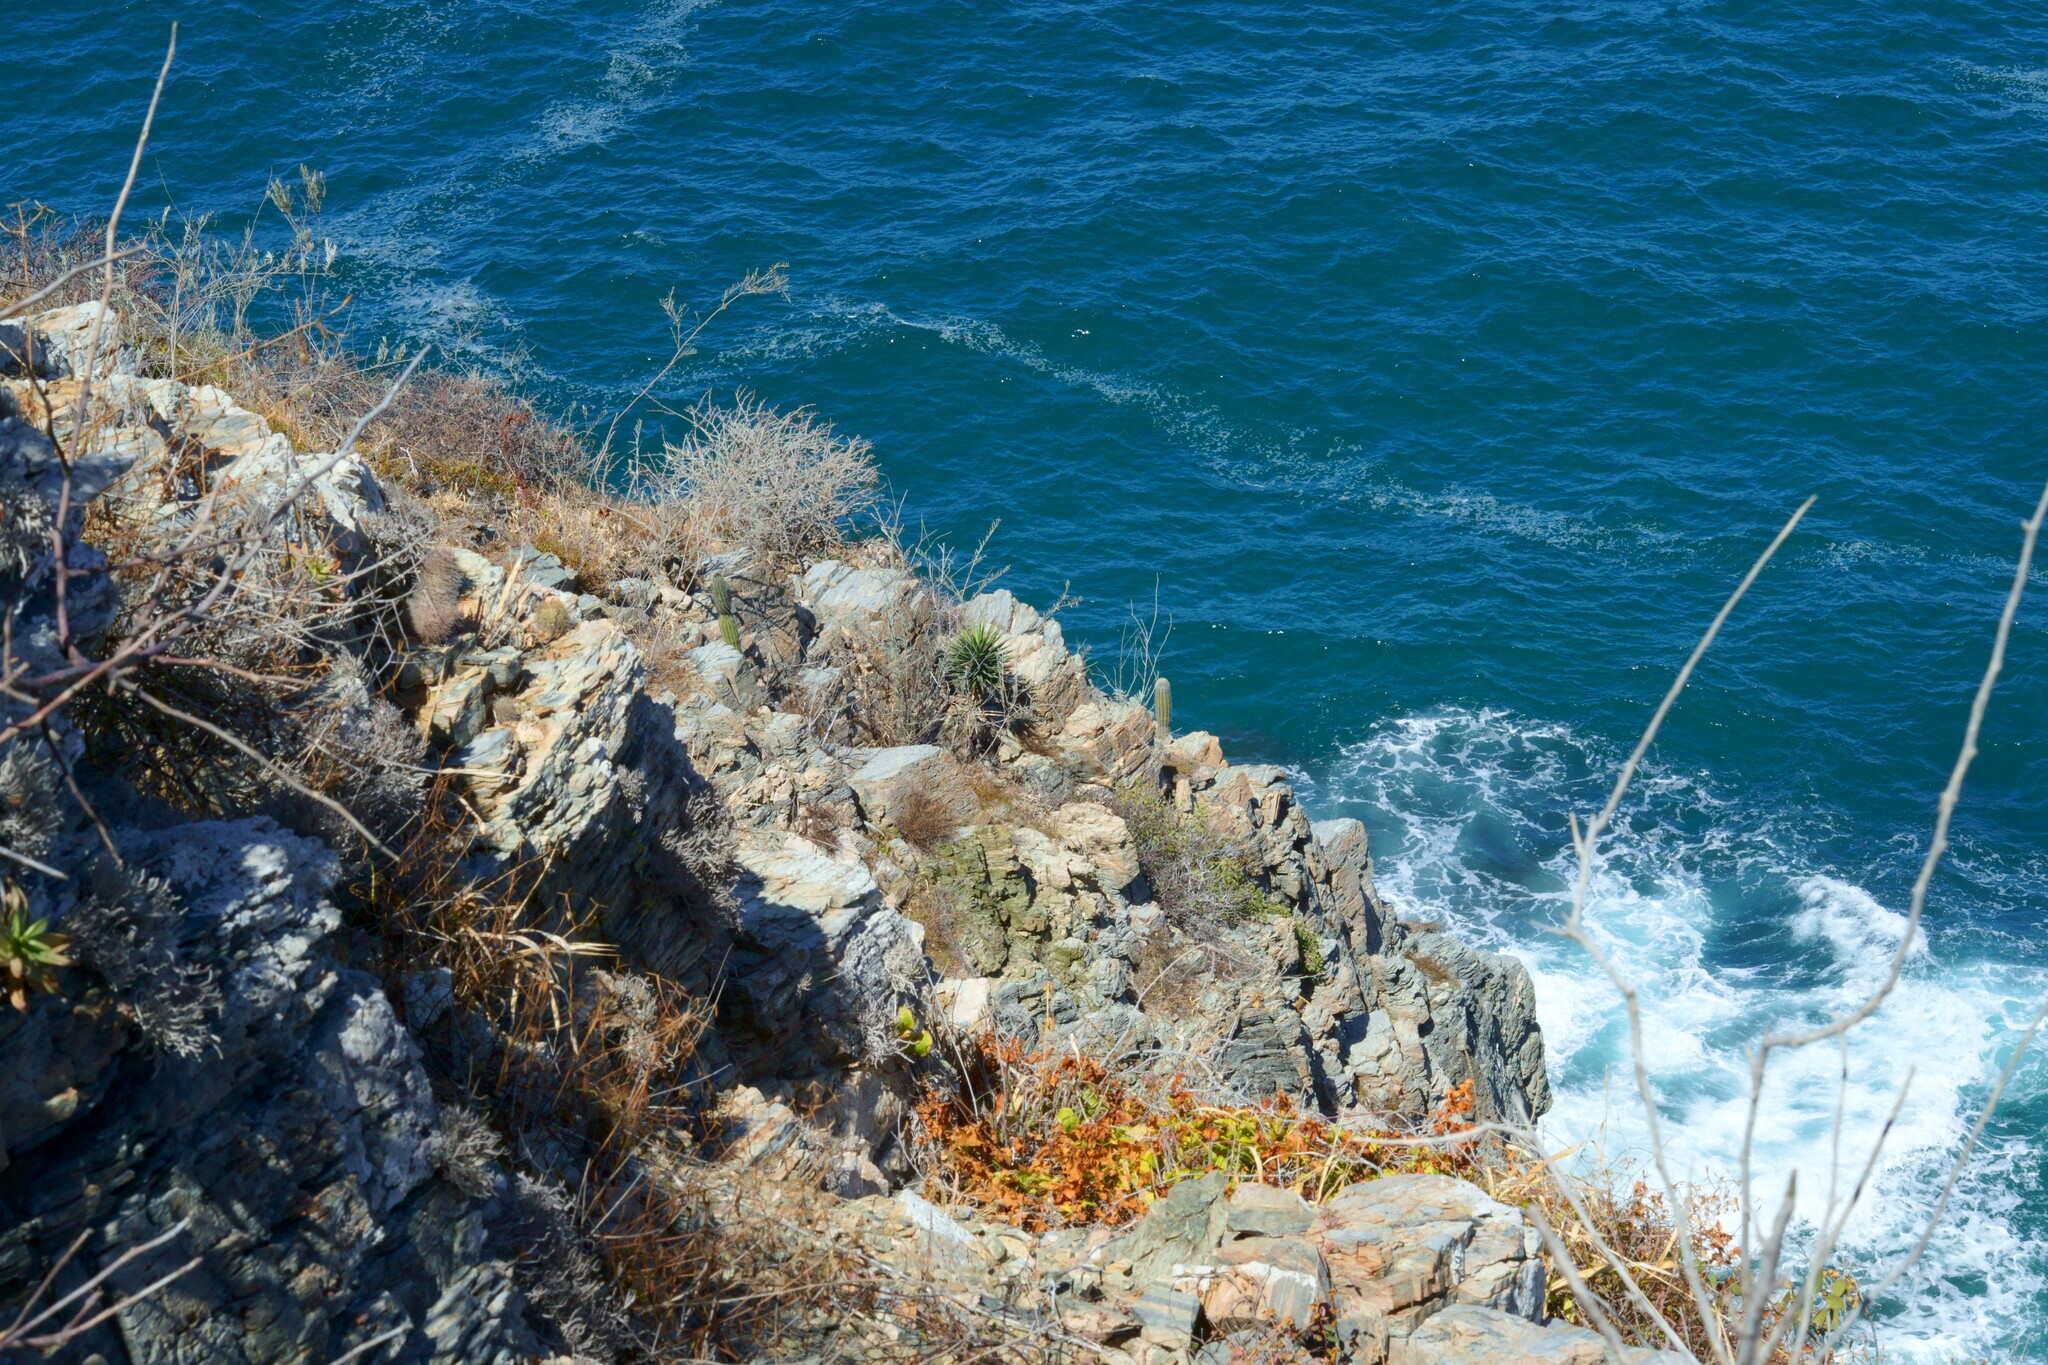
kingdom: Plantae
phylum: Tracheophyta
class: Liliopsida
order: Asparagales
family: Asparagaceae
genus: Yucca
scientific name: Yucca capensis
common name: Cape region yucca
